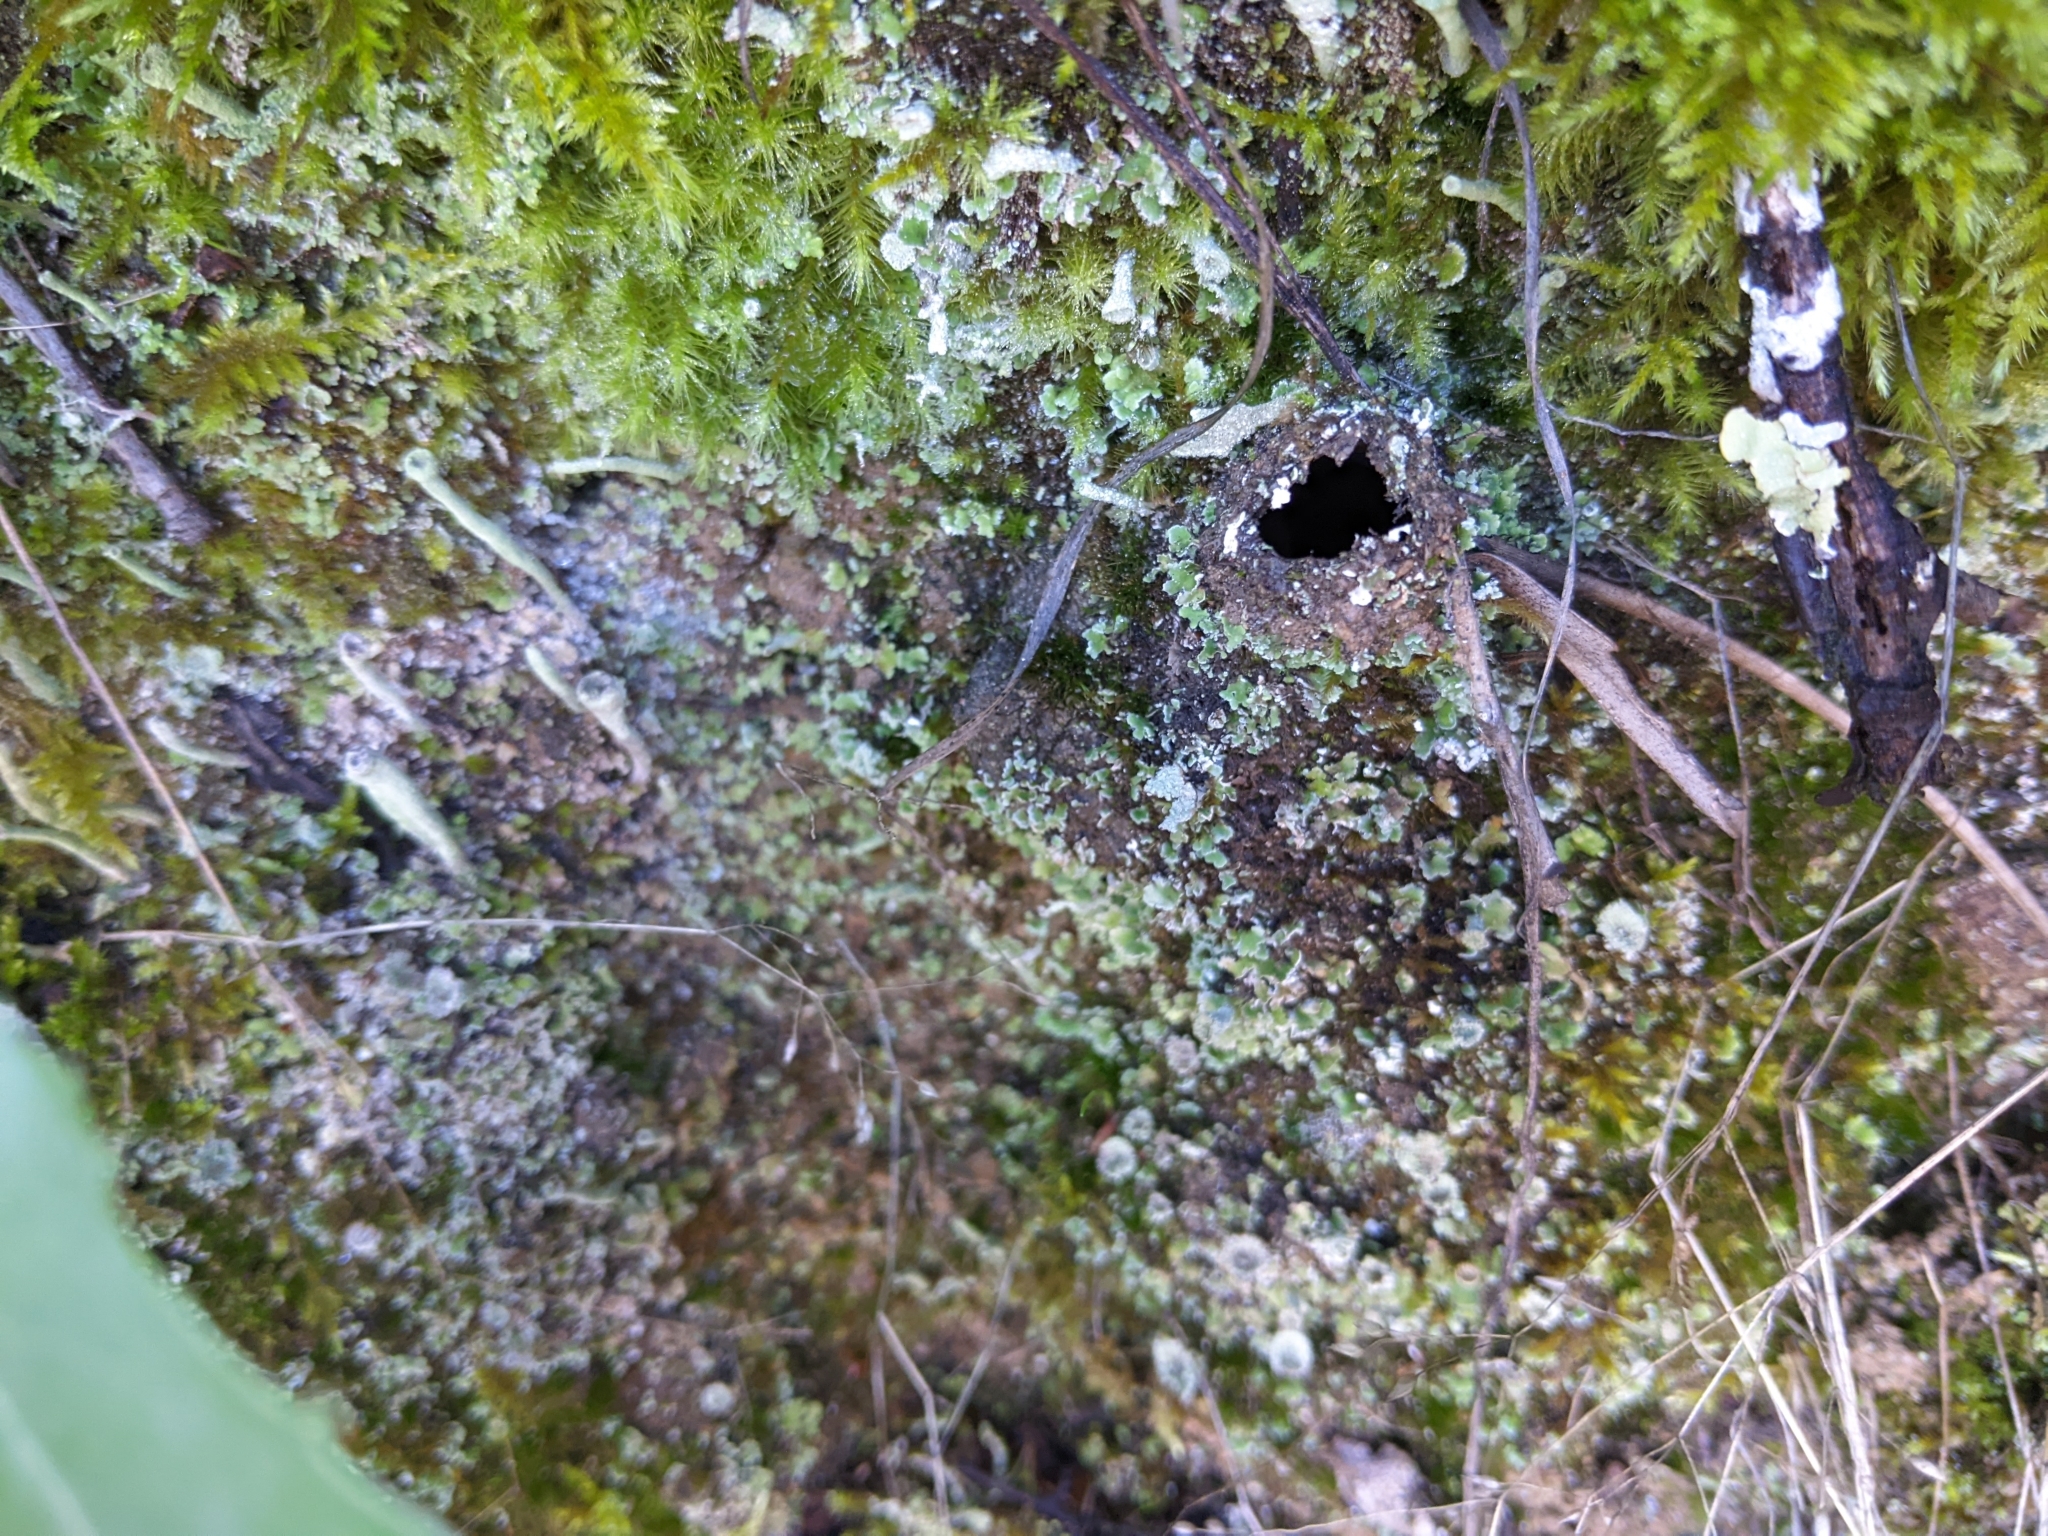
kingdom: Animalia
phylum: Arthropoda
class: Arachnida
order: Araneae
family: Antrodiaetidae
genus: Atypoides
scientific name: Atypoides riversi
